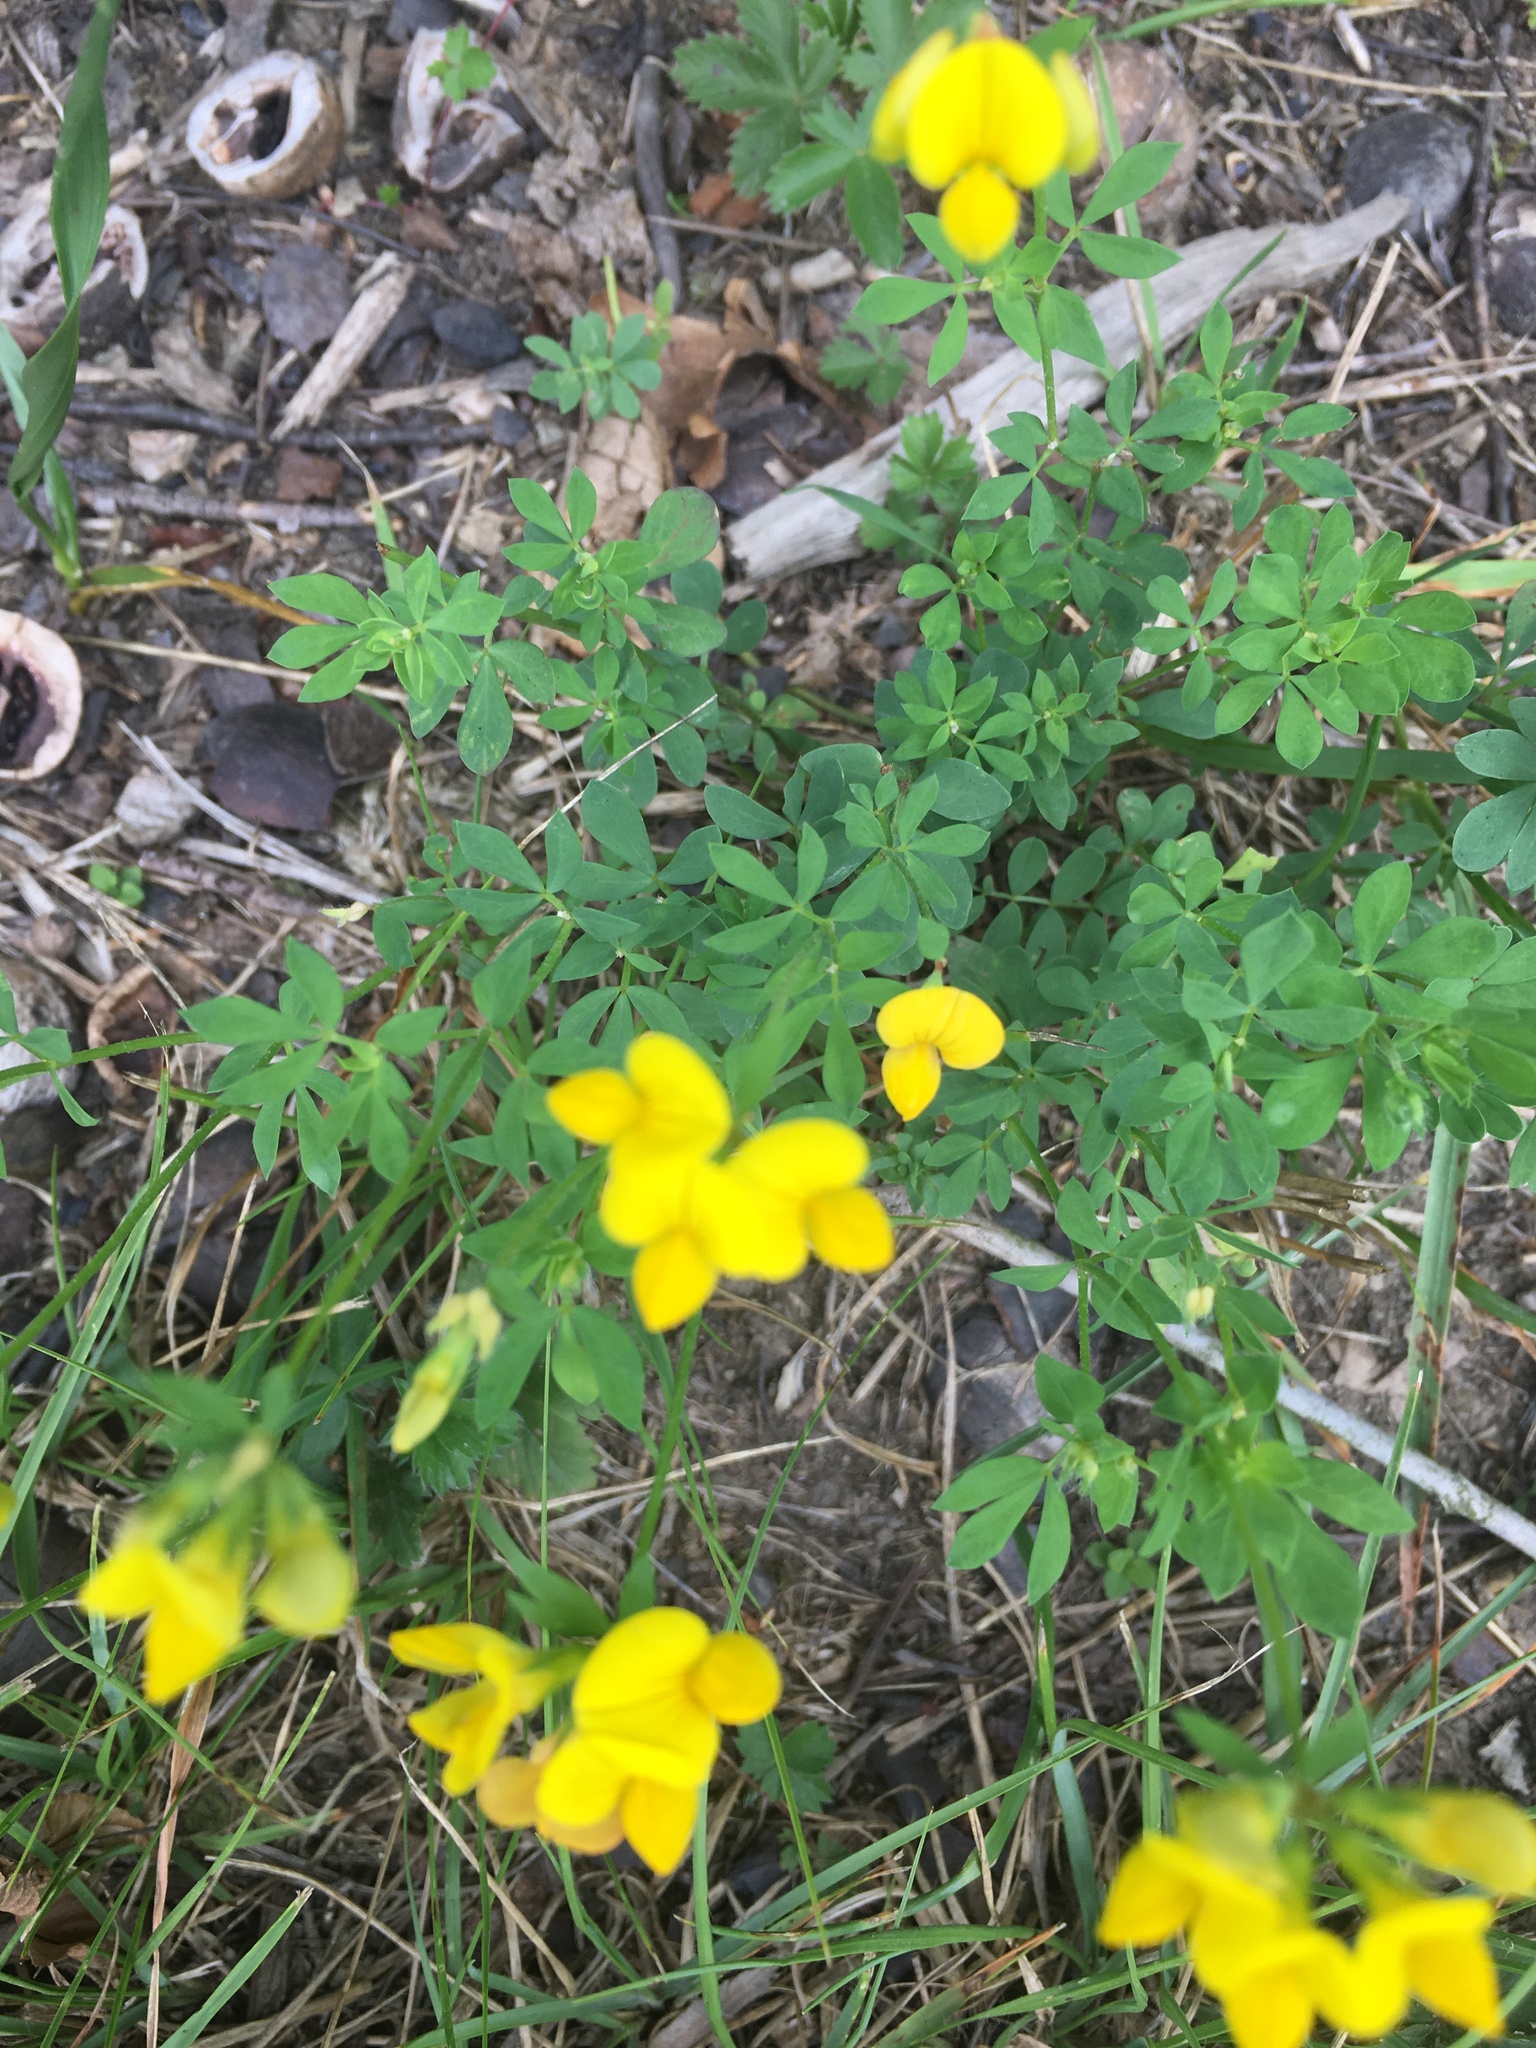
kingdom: Plantae
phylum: Tracheophyta
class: Magnoliopsida
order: Fabales
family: Fabaceae
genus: Lotus
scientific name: Lotus corniculatus
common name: Common bird's-foot-trefoil
